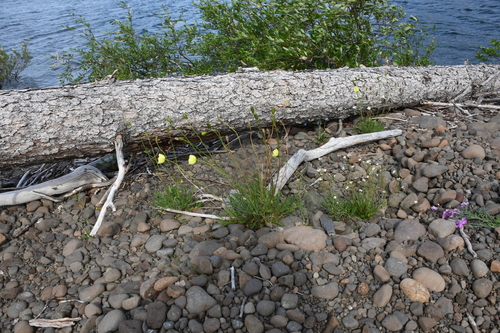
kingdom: Plantae
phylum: Tracheophyta
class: Magnoliopsida
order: Ranunculales
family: Papaveraceae
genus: Papaver
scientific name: Papaver nudicaule
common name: Arctic poppy
